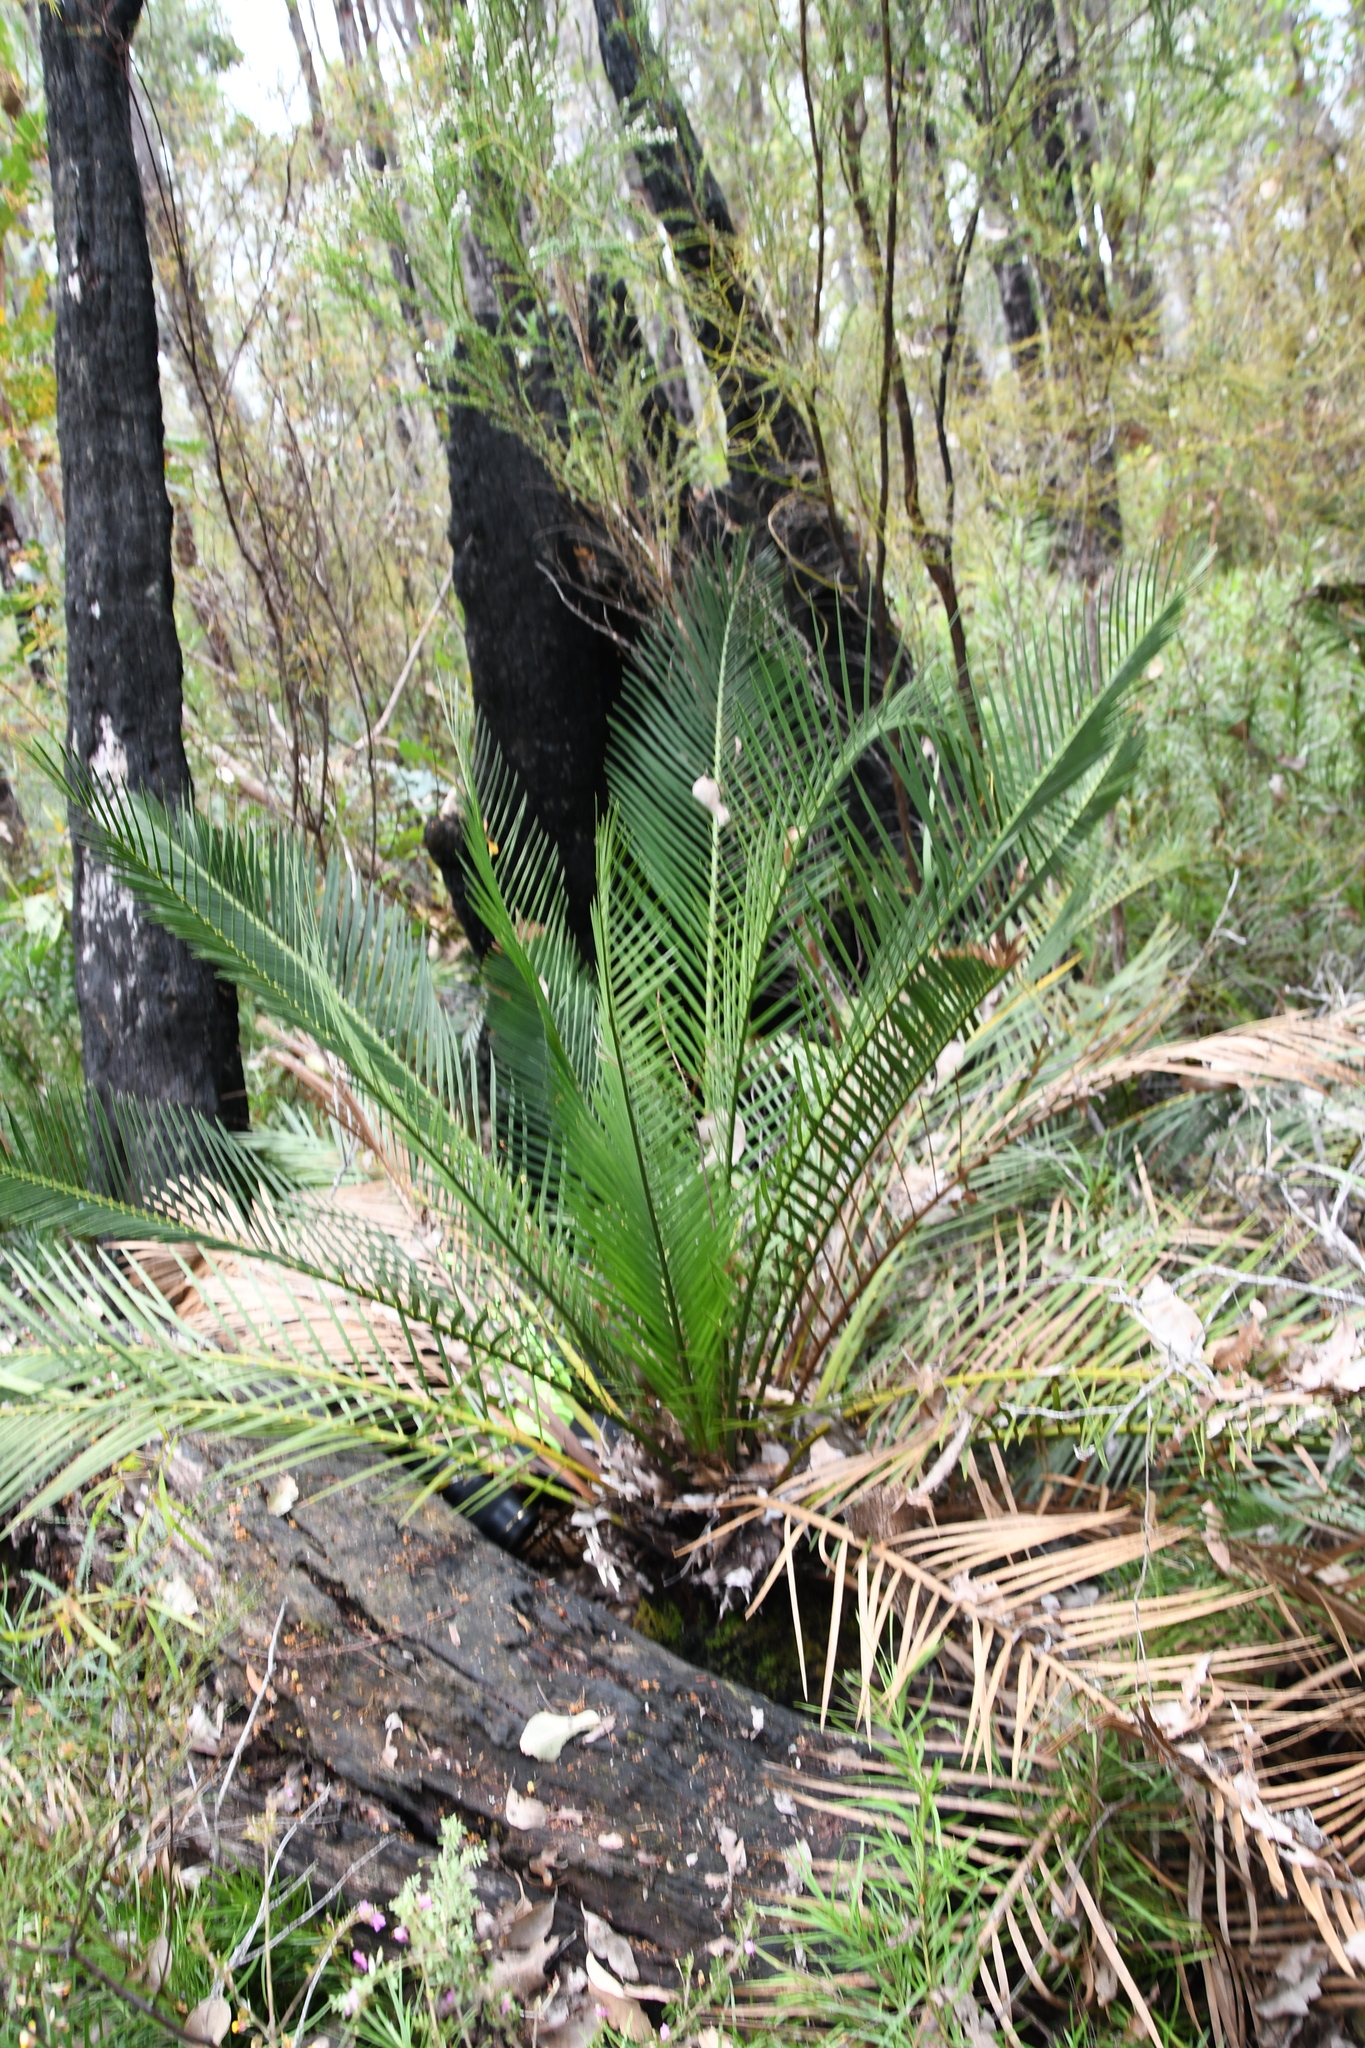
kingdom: Plantae
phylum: Tracheophyta
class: Cycadopsida
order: Cycadales
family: Zamiaceae
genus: Macrozamia
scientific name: Macrozamia riedlei
